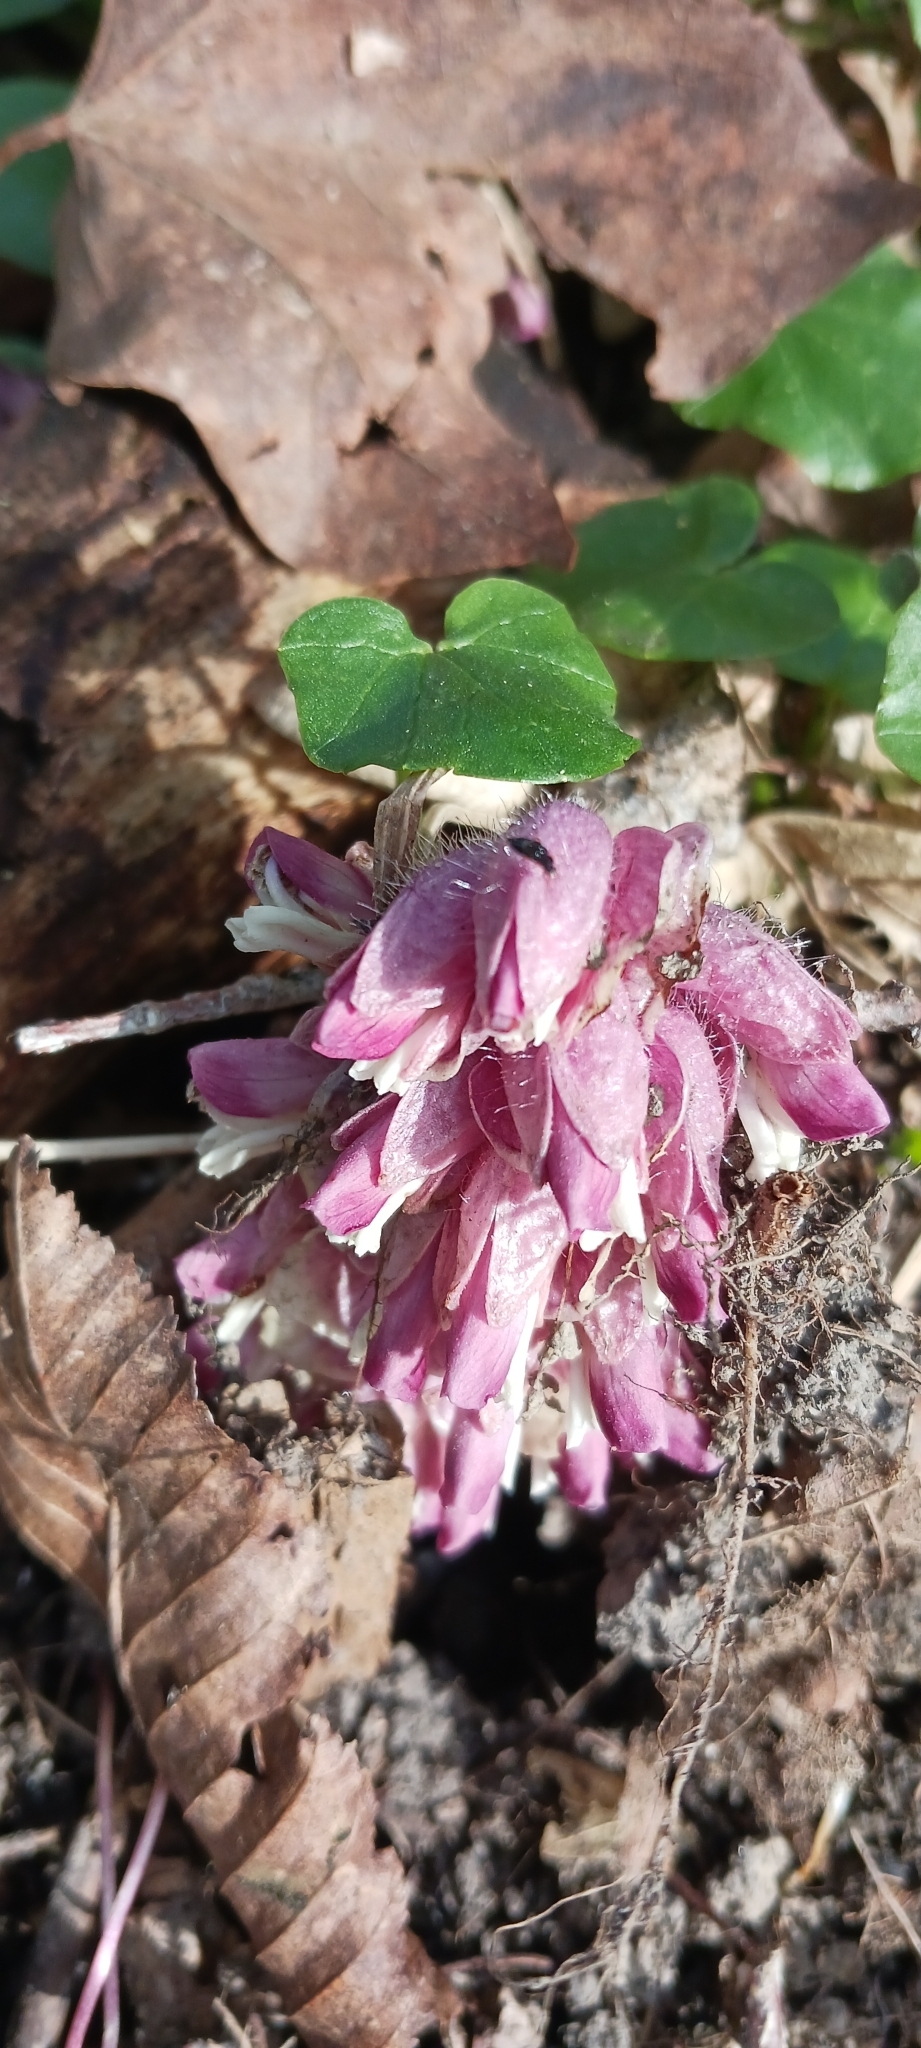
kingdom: Plantae
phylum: Tracheophyta
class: Magnoliopsida
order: Lamiales
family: Orobanchaceae
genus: Lathraea
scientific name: Lathraea squamaria
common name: Toothwort
